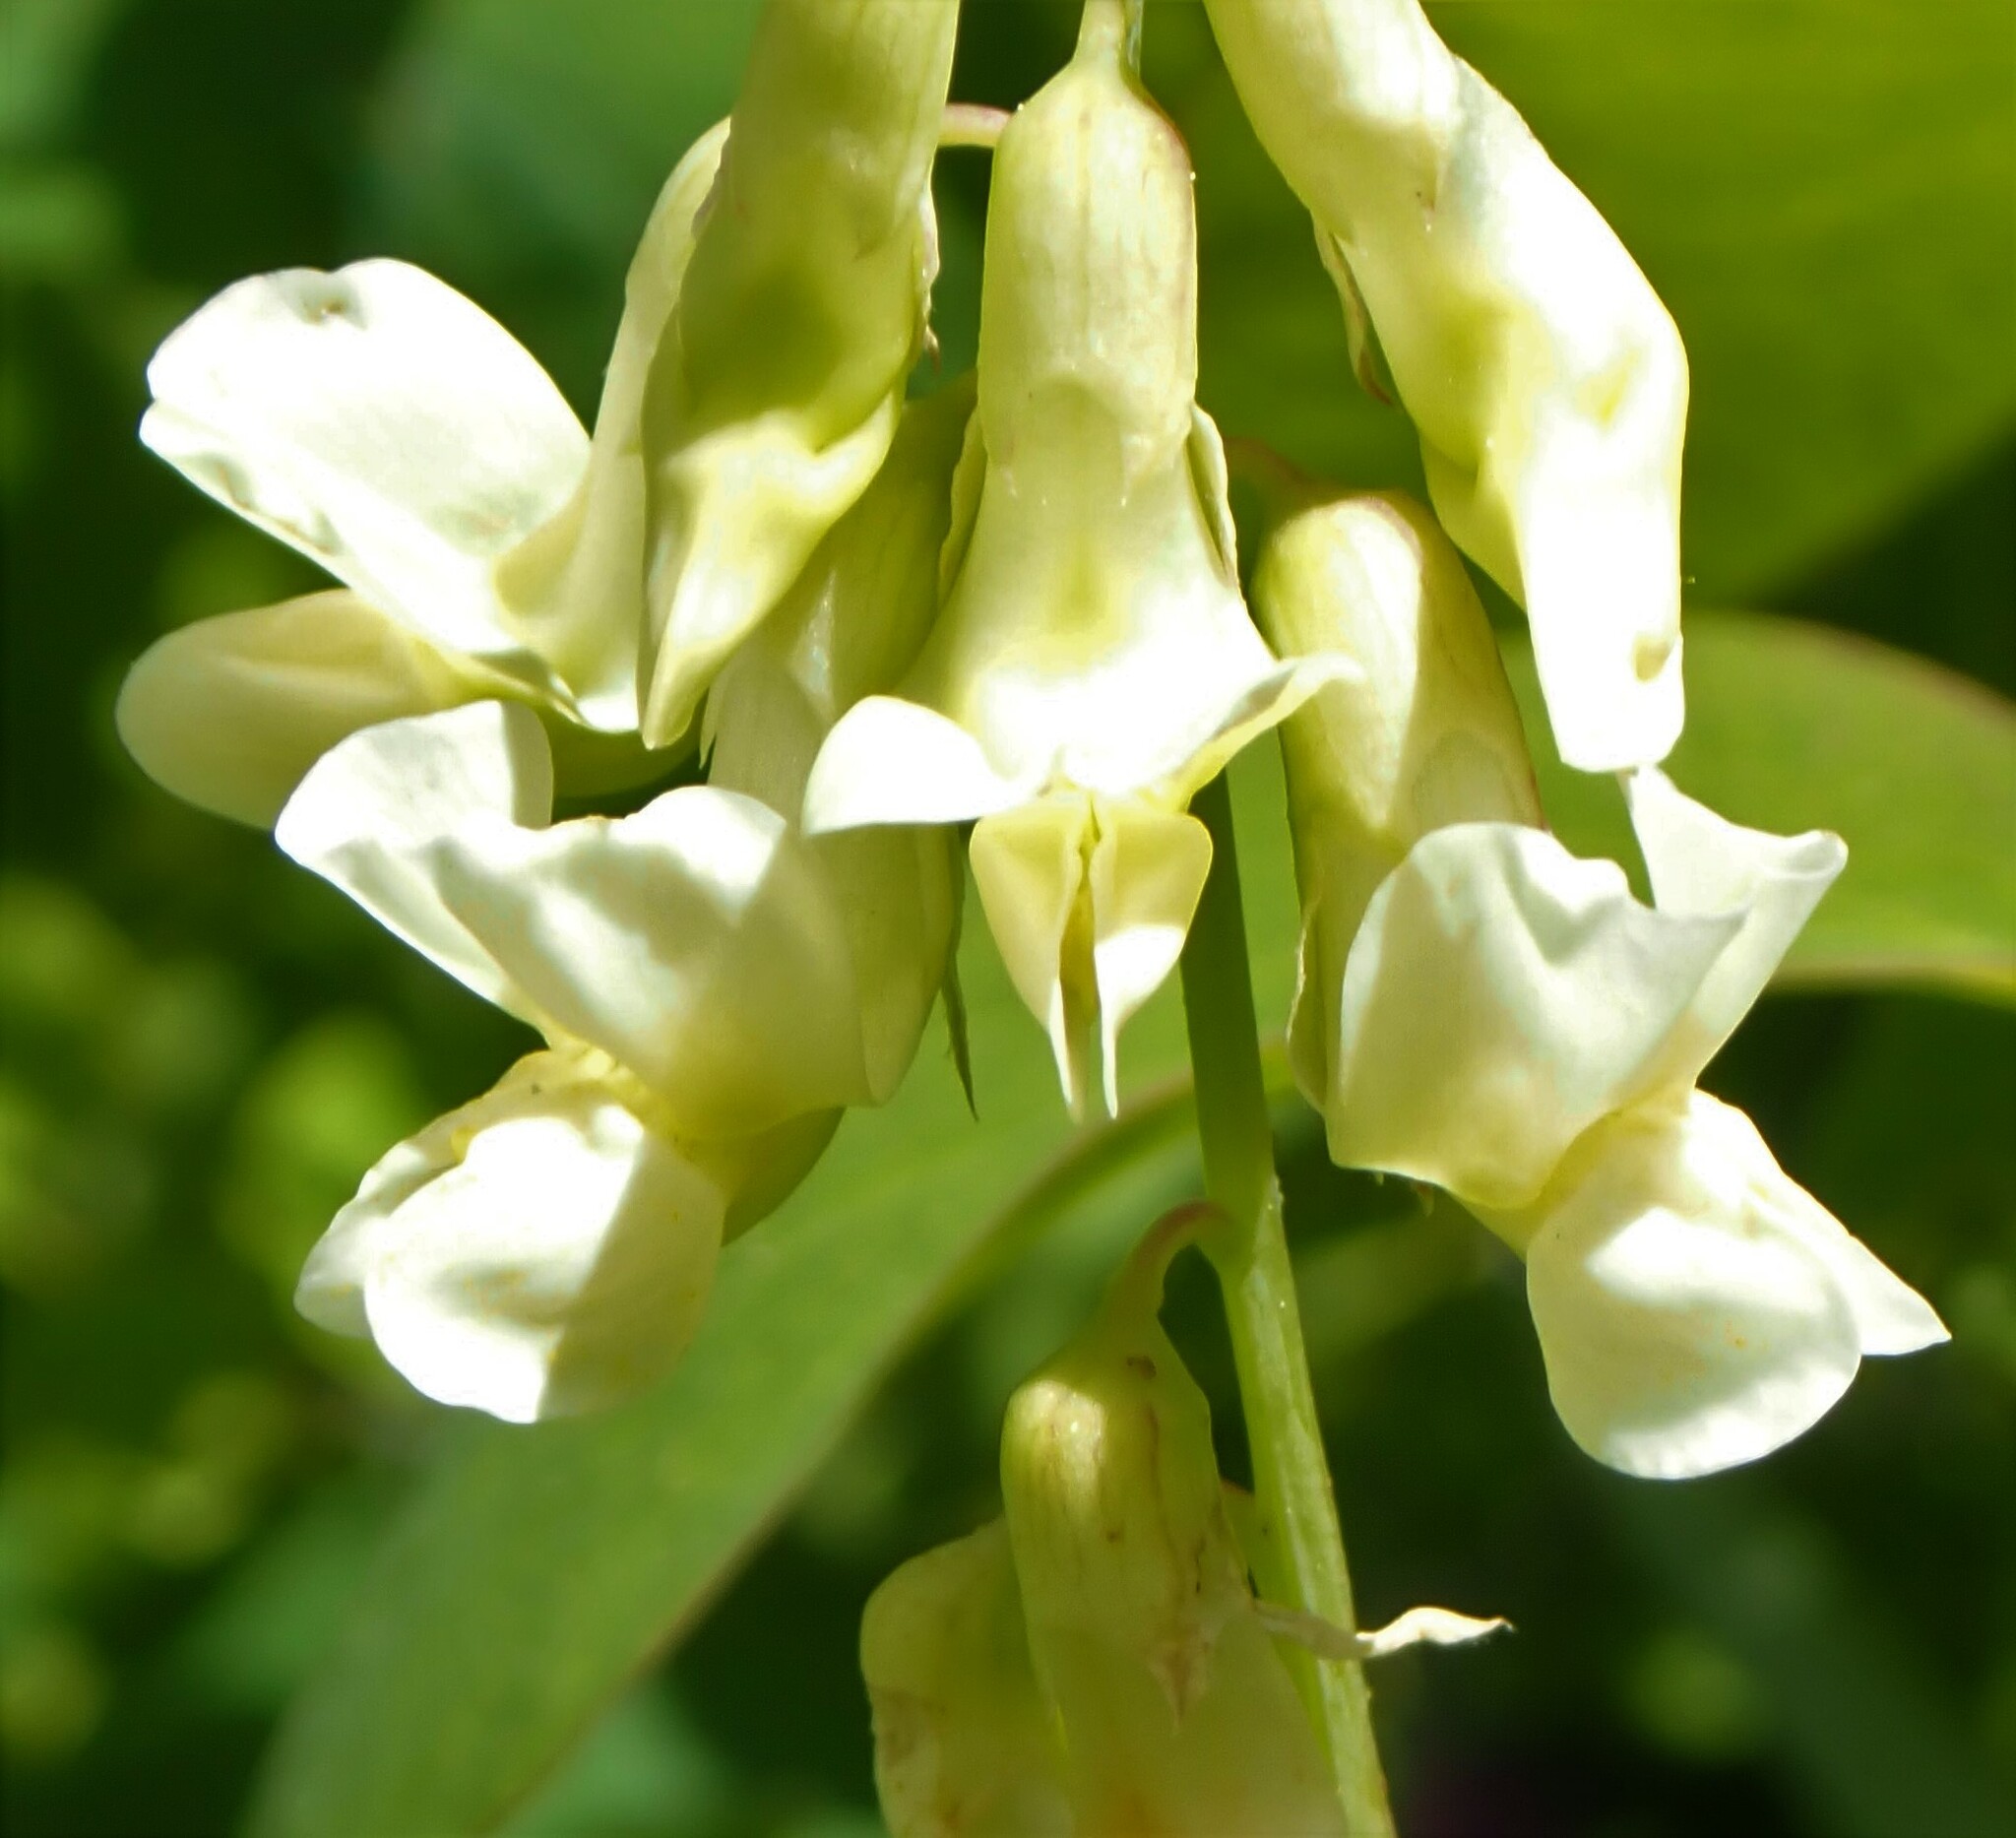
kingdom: Plantae
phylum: Tracheophyta
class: Magnoliopsida
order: Fabales
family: Fabaceae
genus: Lathyrus
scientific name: Lathyrus ochroleucus
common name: Pale vetchling
